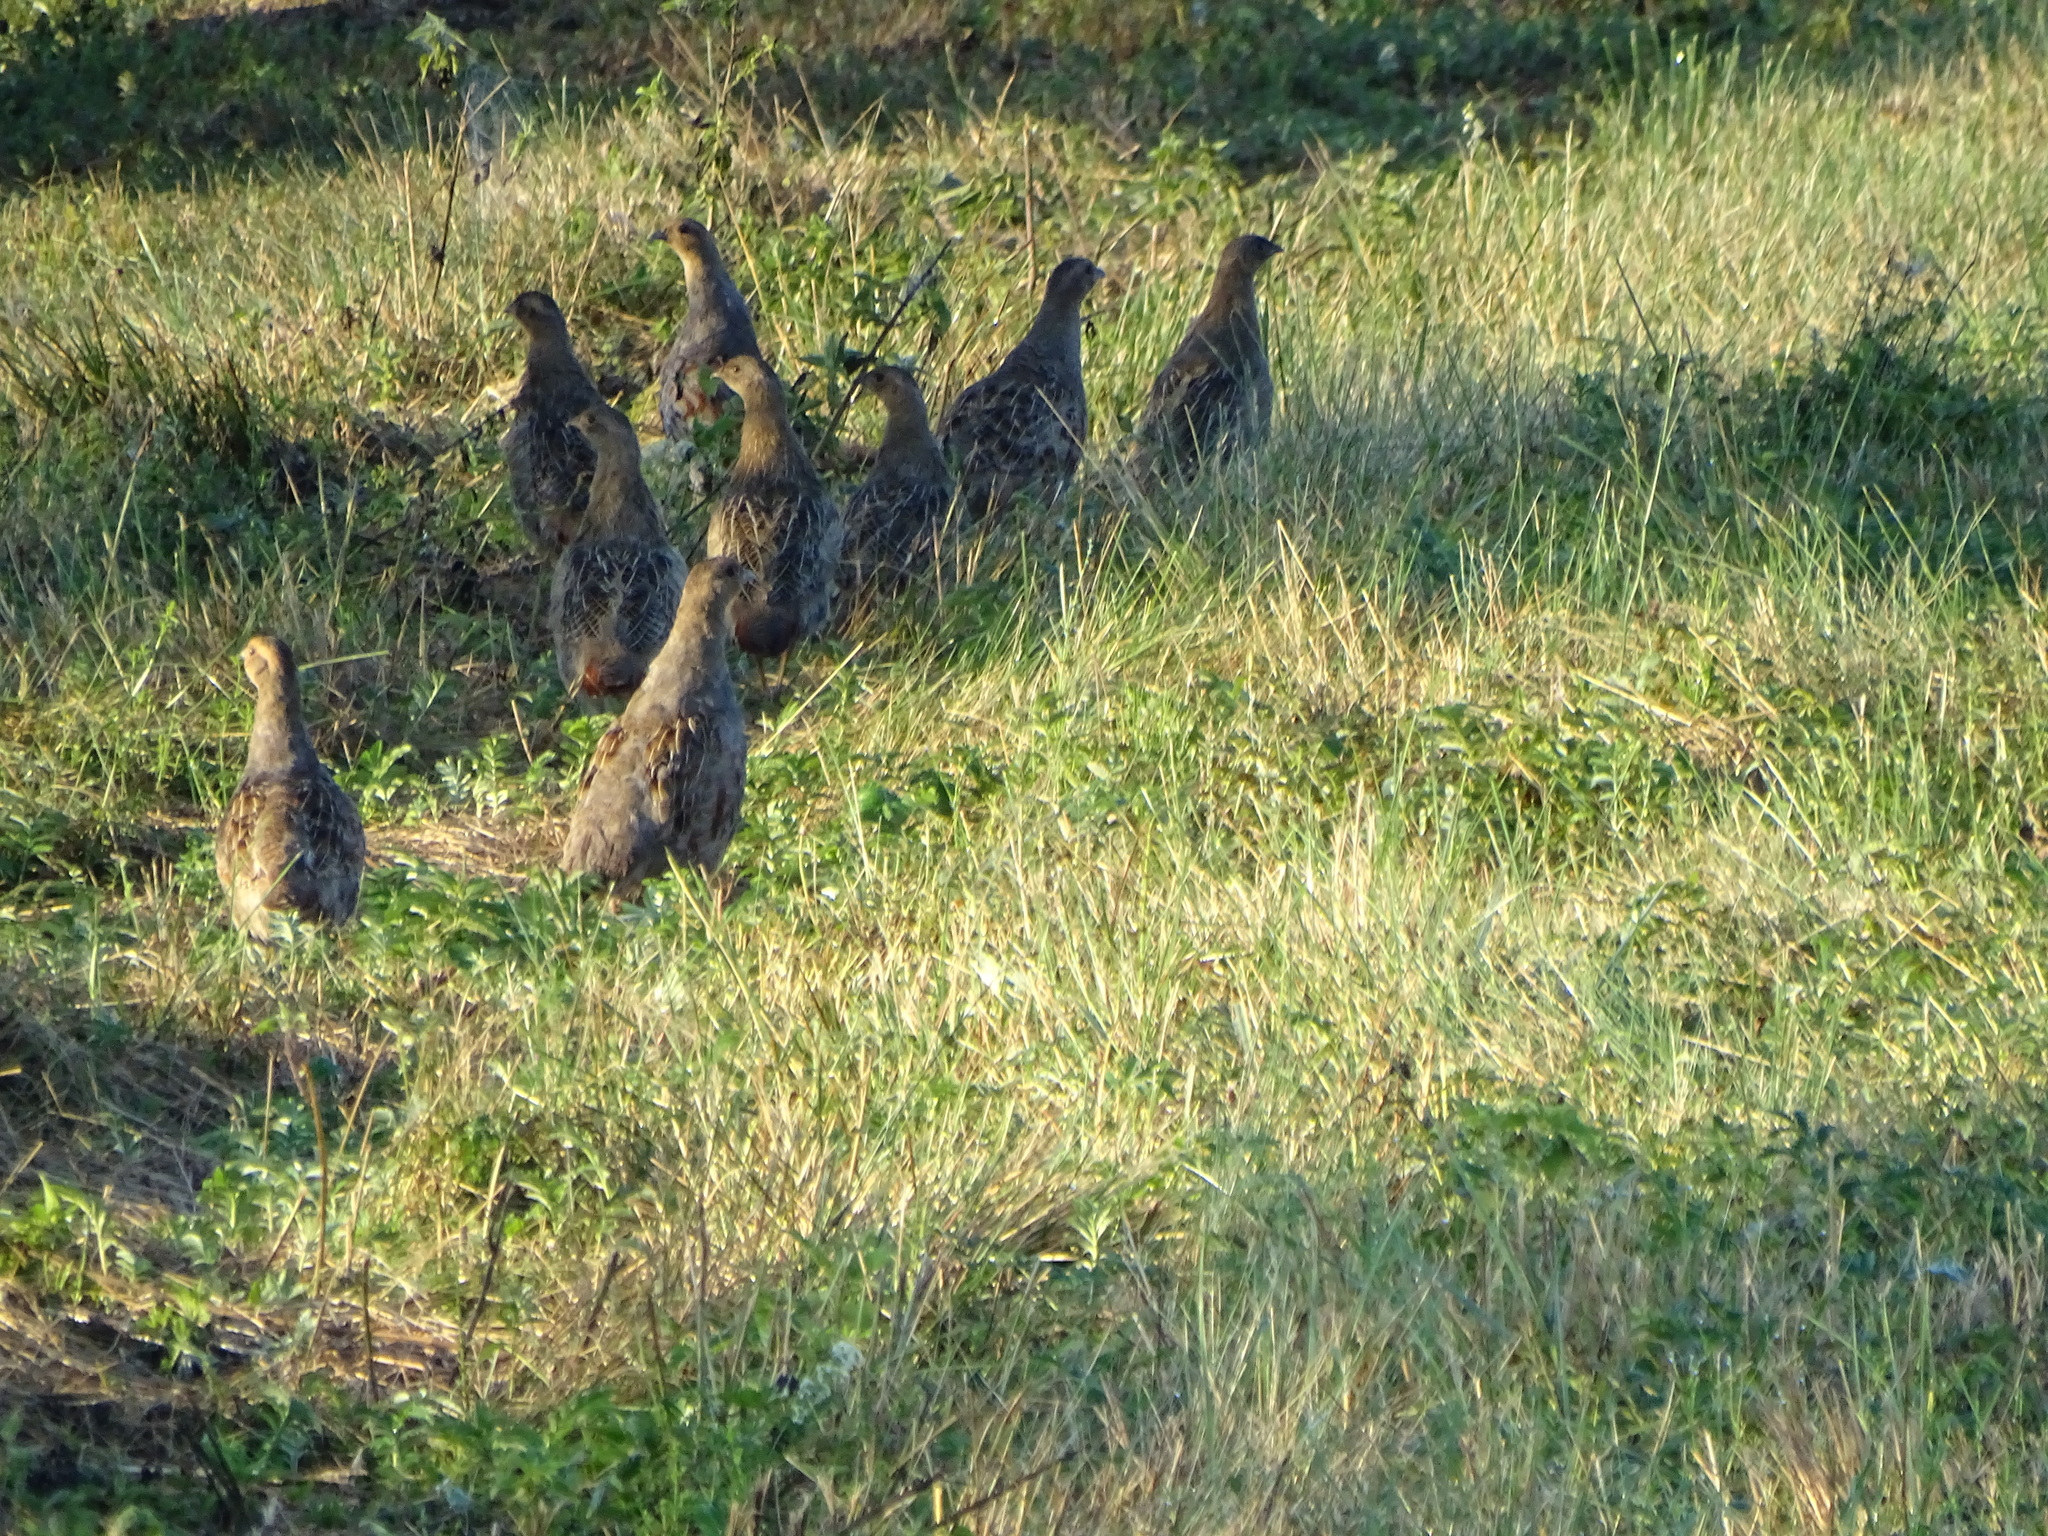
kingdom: Animalia
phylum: Chordata
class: Aves
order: Galliformes
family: Phasianidae
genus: Perdix
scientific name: Perdix perdix
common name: Grey partridge
